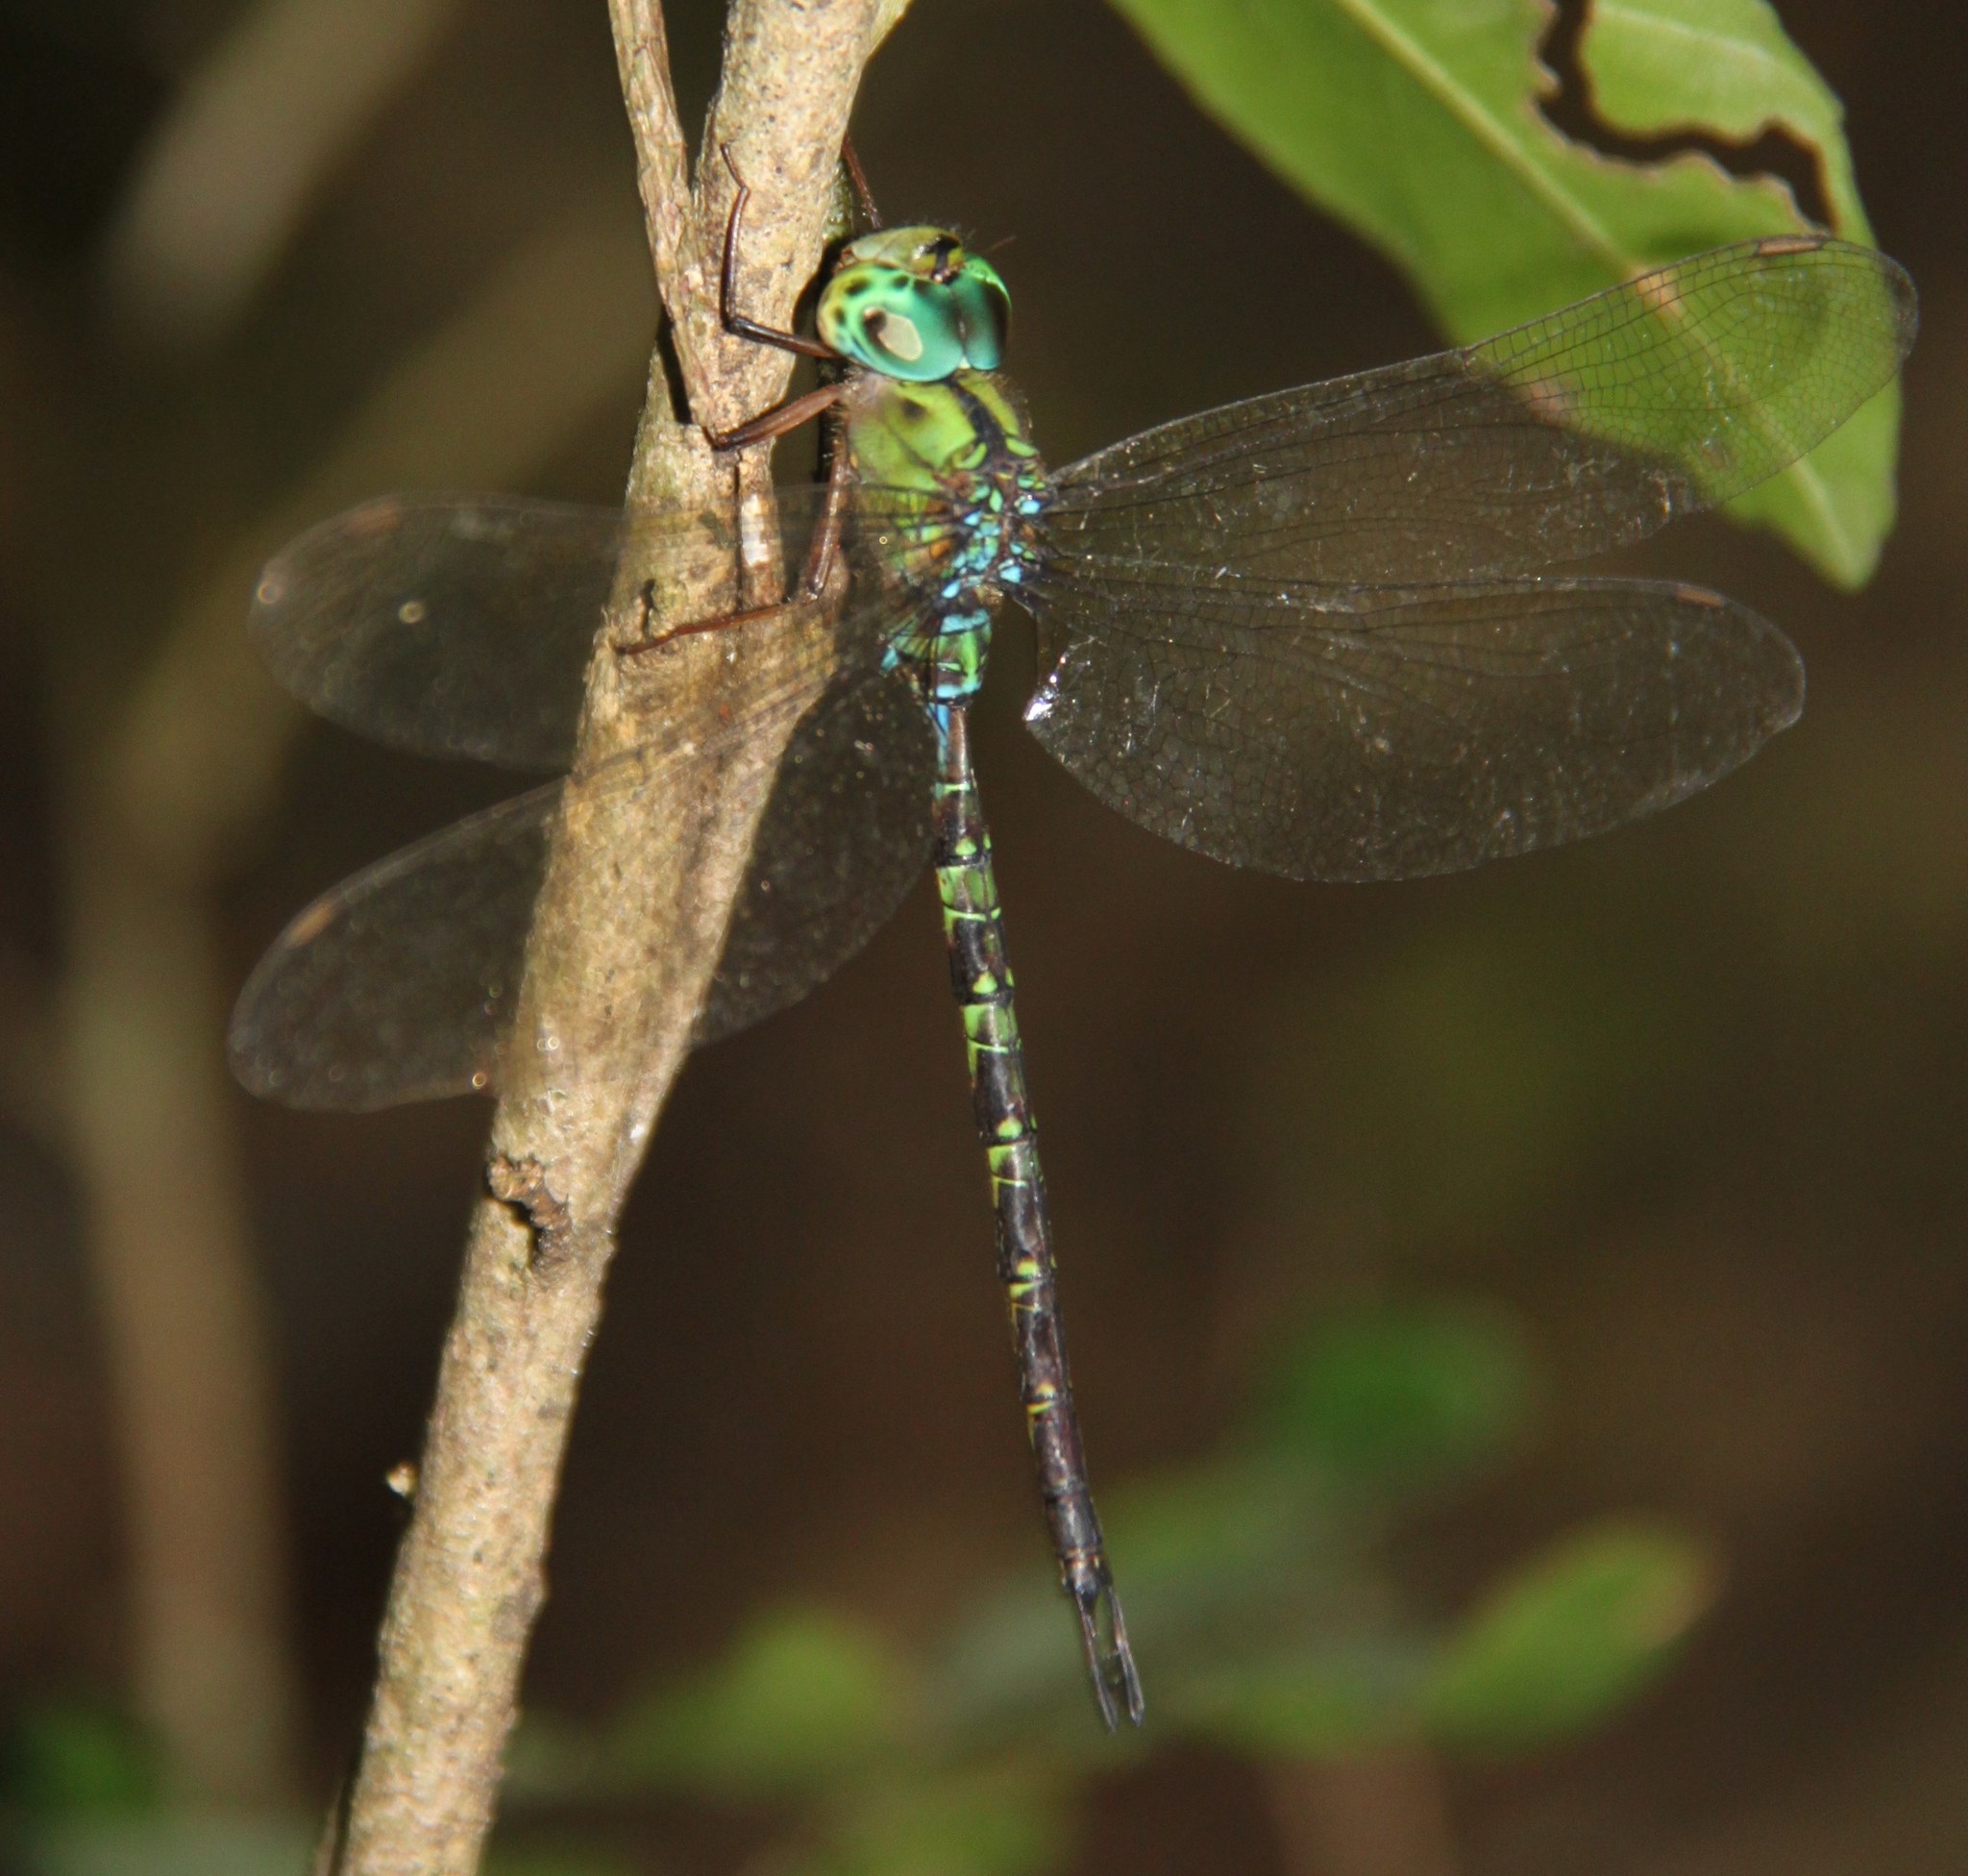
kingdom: Animalia
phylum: Arthropoda
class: Insecta
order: Odonata
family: Aeshnidae
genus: Gynacantha
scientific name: Gynacantha subinterrupta
